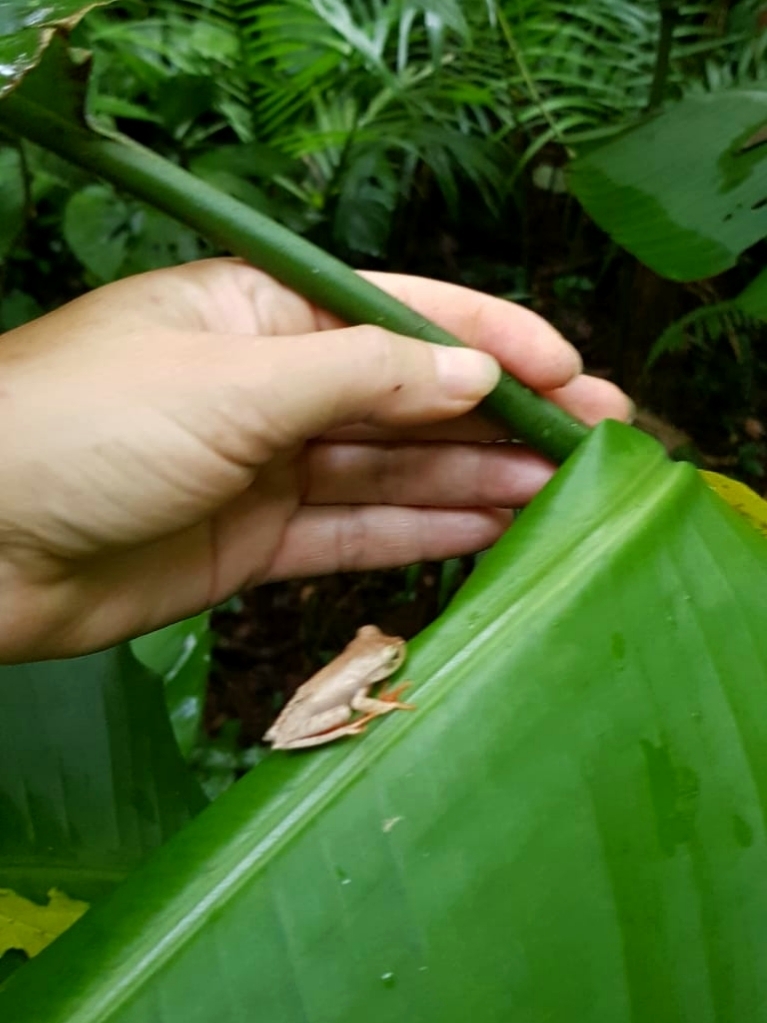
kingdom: Animalia
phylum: Chordata
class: Amphibia
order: Anura
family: Hylidae
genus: Bokermannohyla
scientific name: Bokermannohyla hylax
